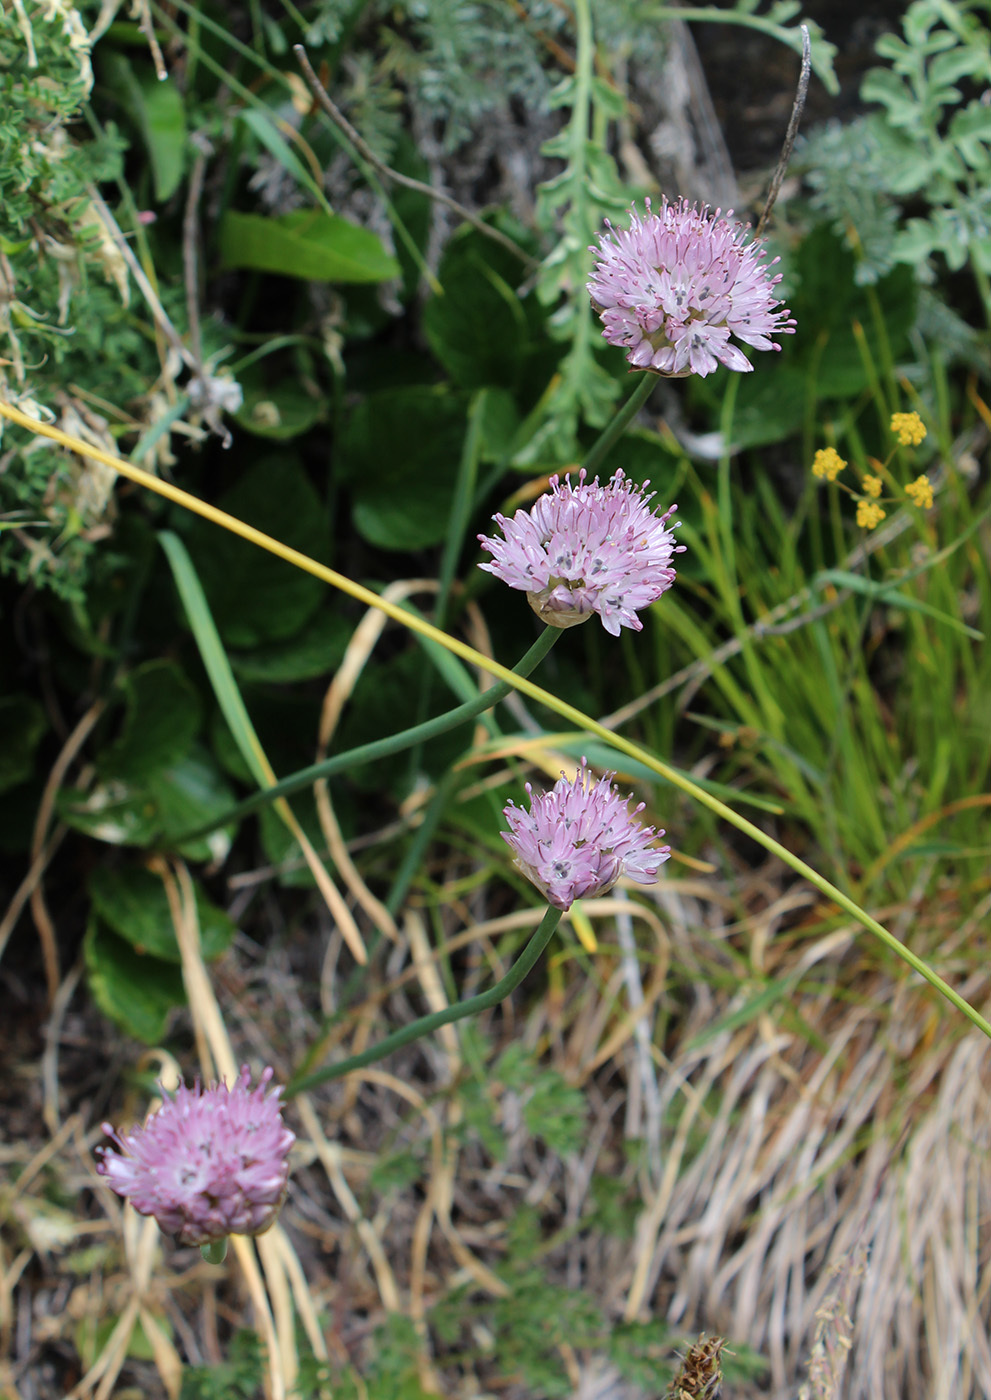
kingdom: Plantae
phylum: Tracheophyta
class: Liliopsida
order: Asparagales
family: Amaryllidaceae
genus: Allium
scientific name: Allium pseudostrictum
